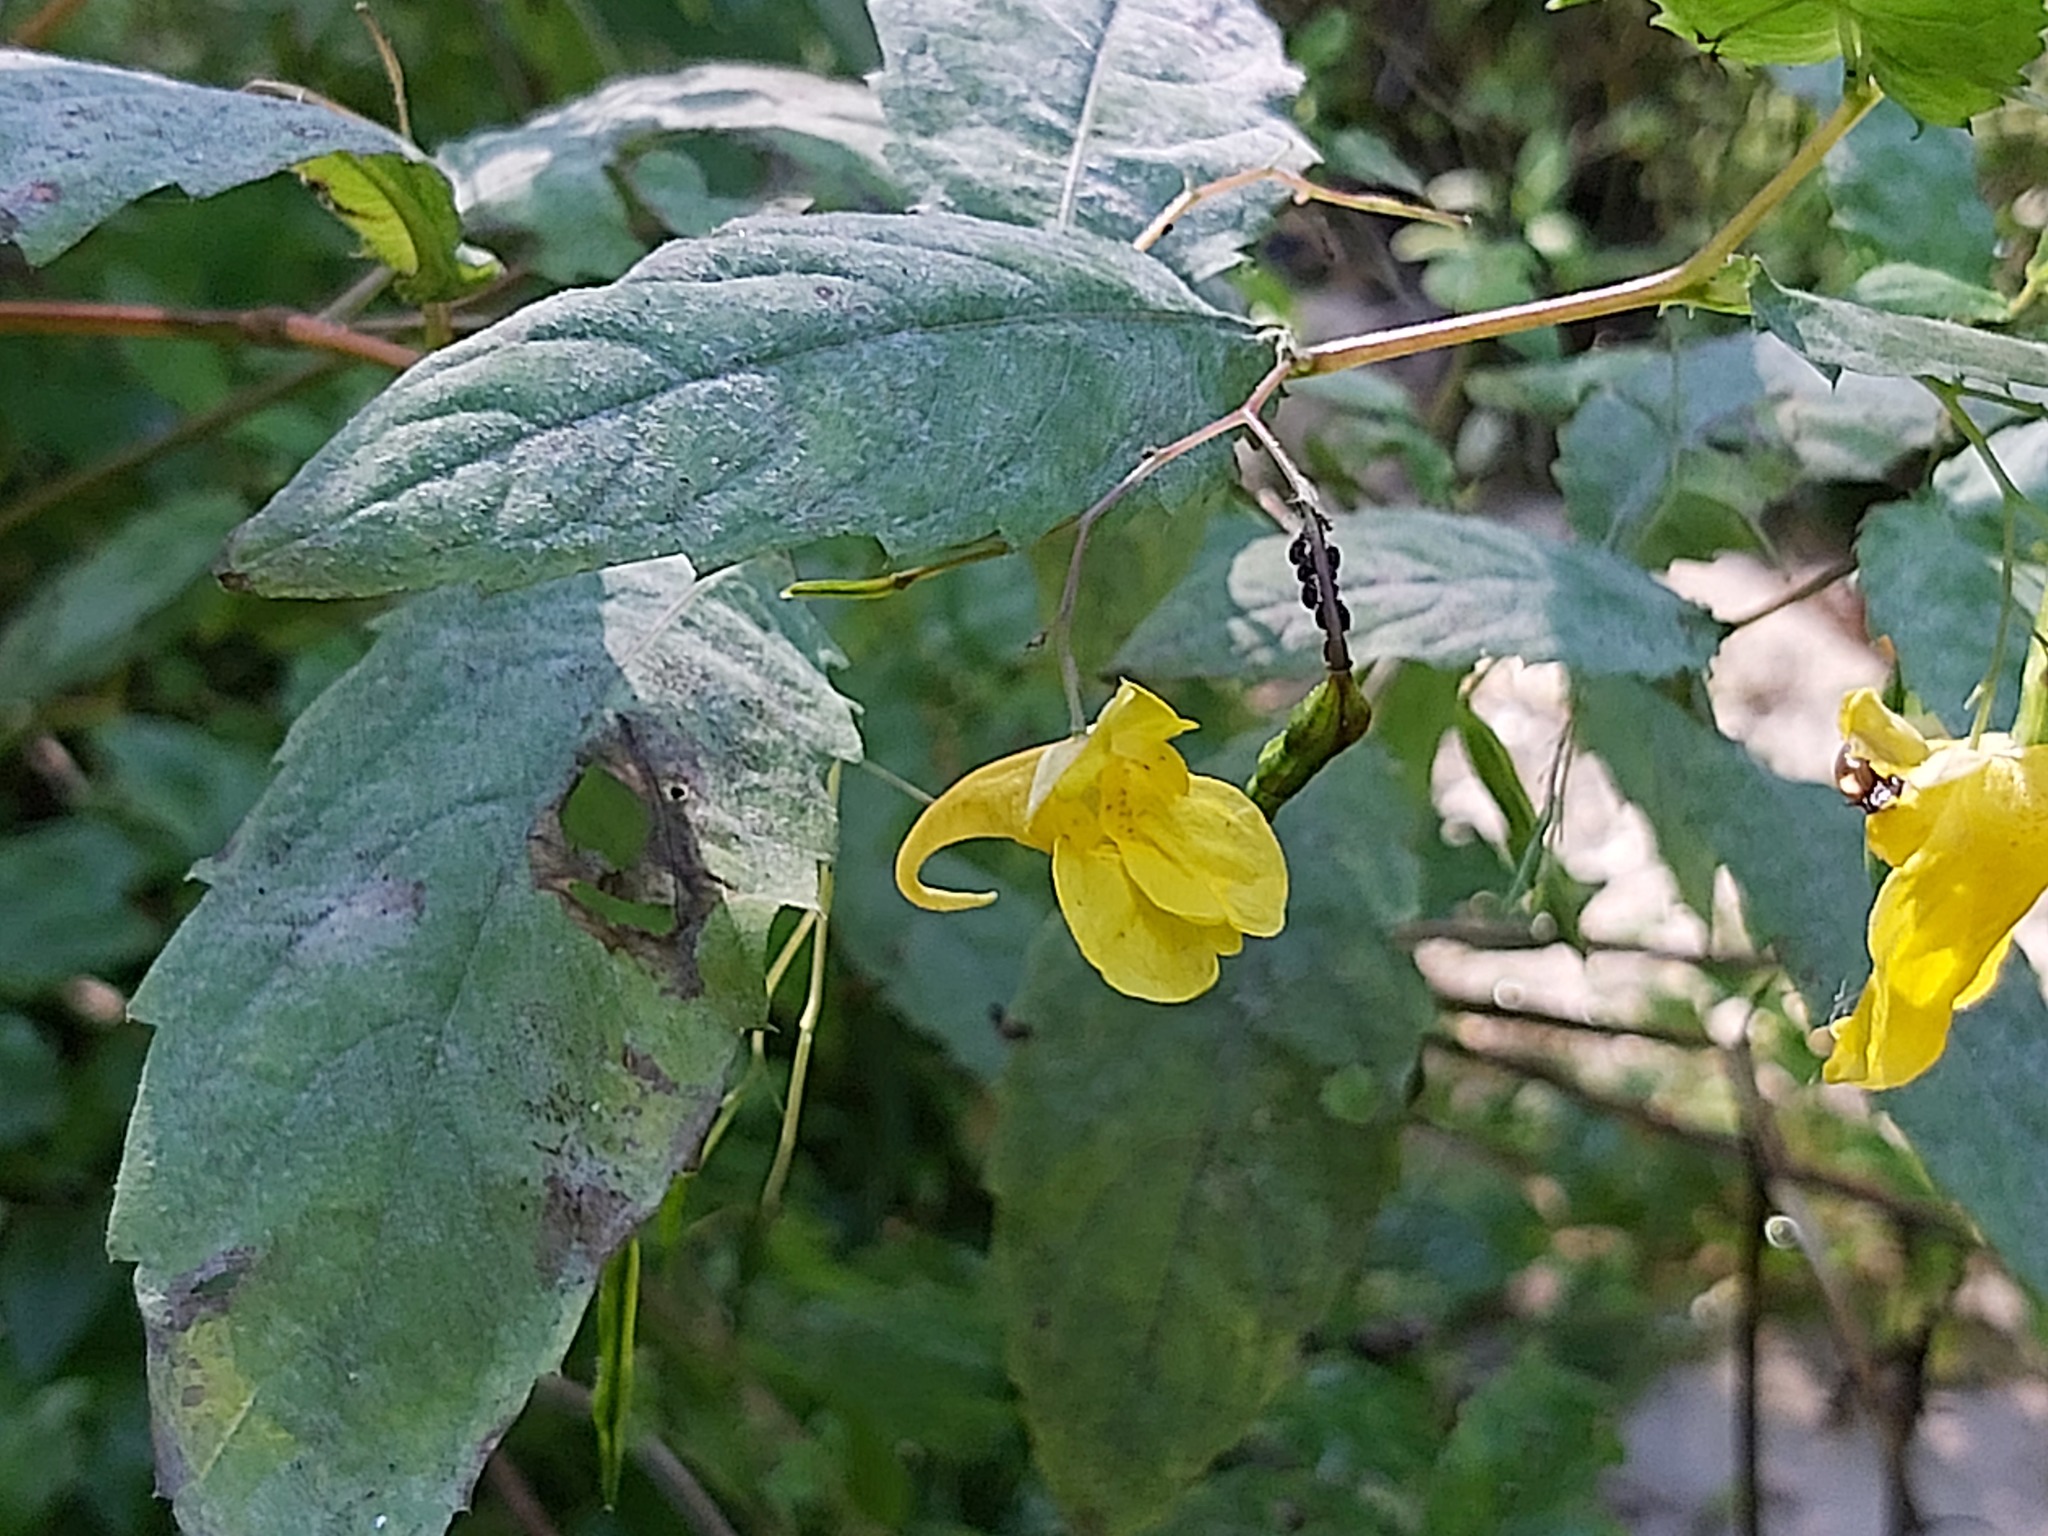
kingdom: Plantae
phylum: Tracheophyta
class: Magnoliopsida
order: Ericales
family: Balsaminaceae
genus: Impatiens
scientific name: Impatiens noli-tangere
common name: Touch-me-not balsam
